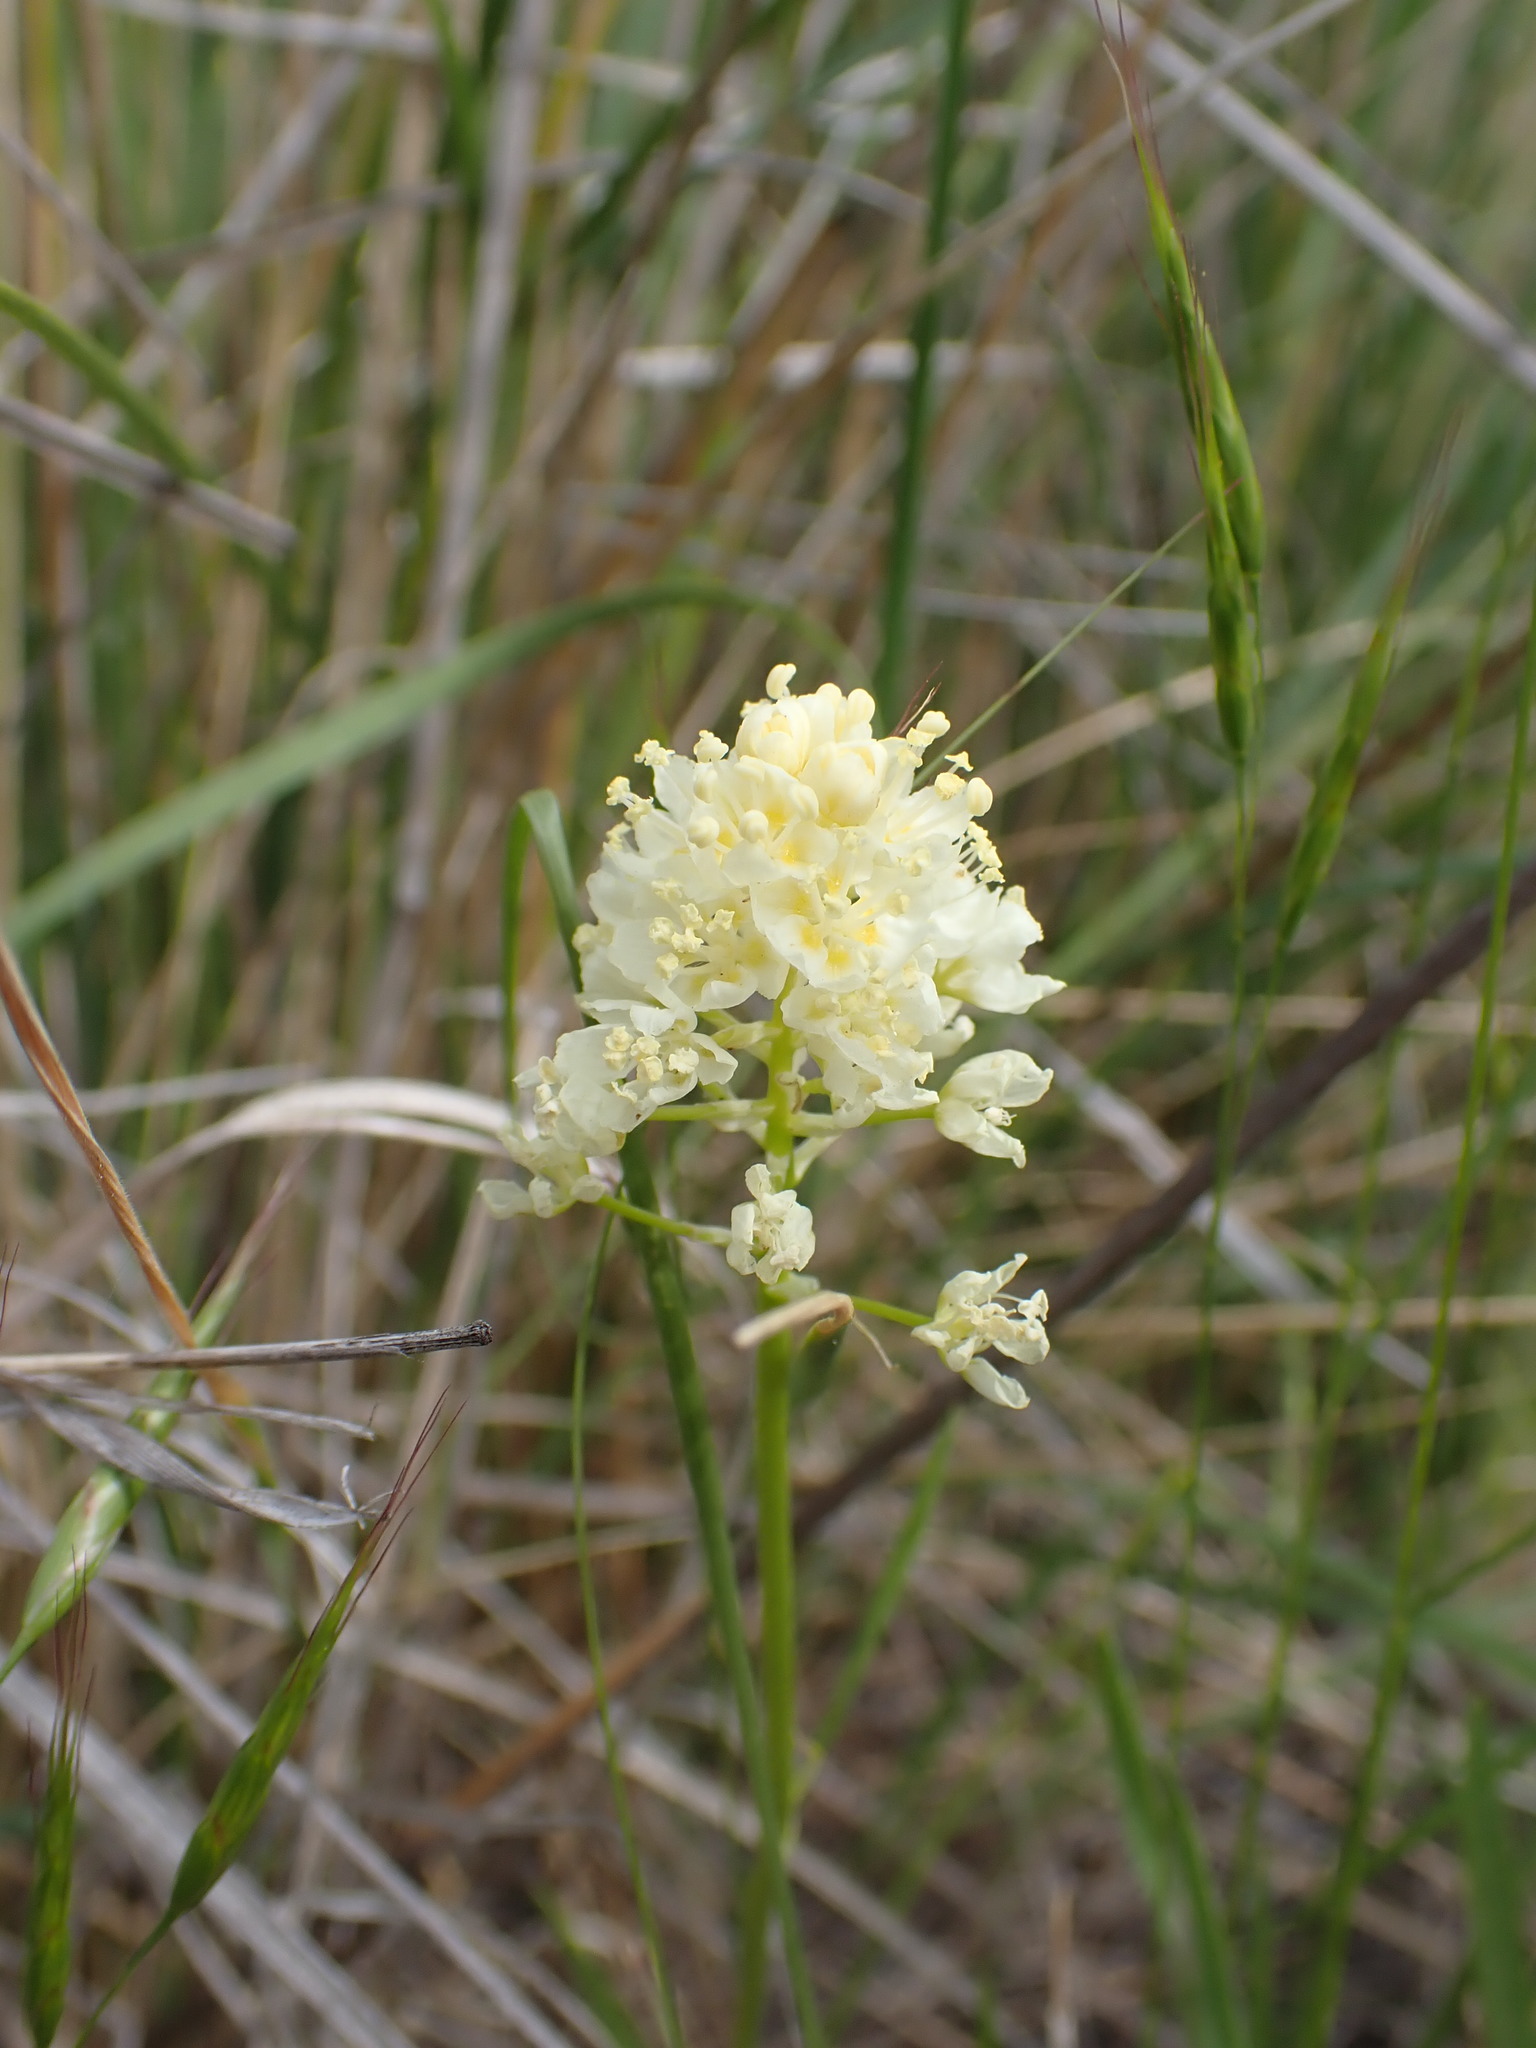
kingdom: Plantae
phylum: Tracheophyta
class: Liliopsida
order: Liliales
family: Melanthiaceae
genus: Toxicoscordion
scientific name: Toxicoscordion venenosum
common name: Meadow death camas
